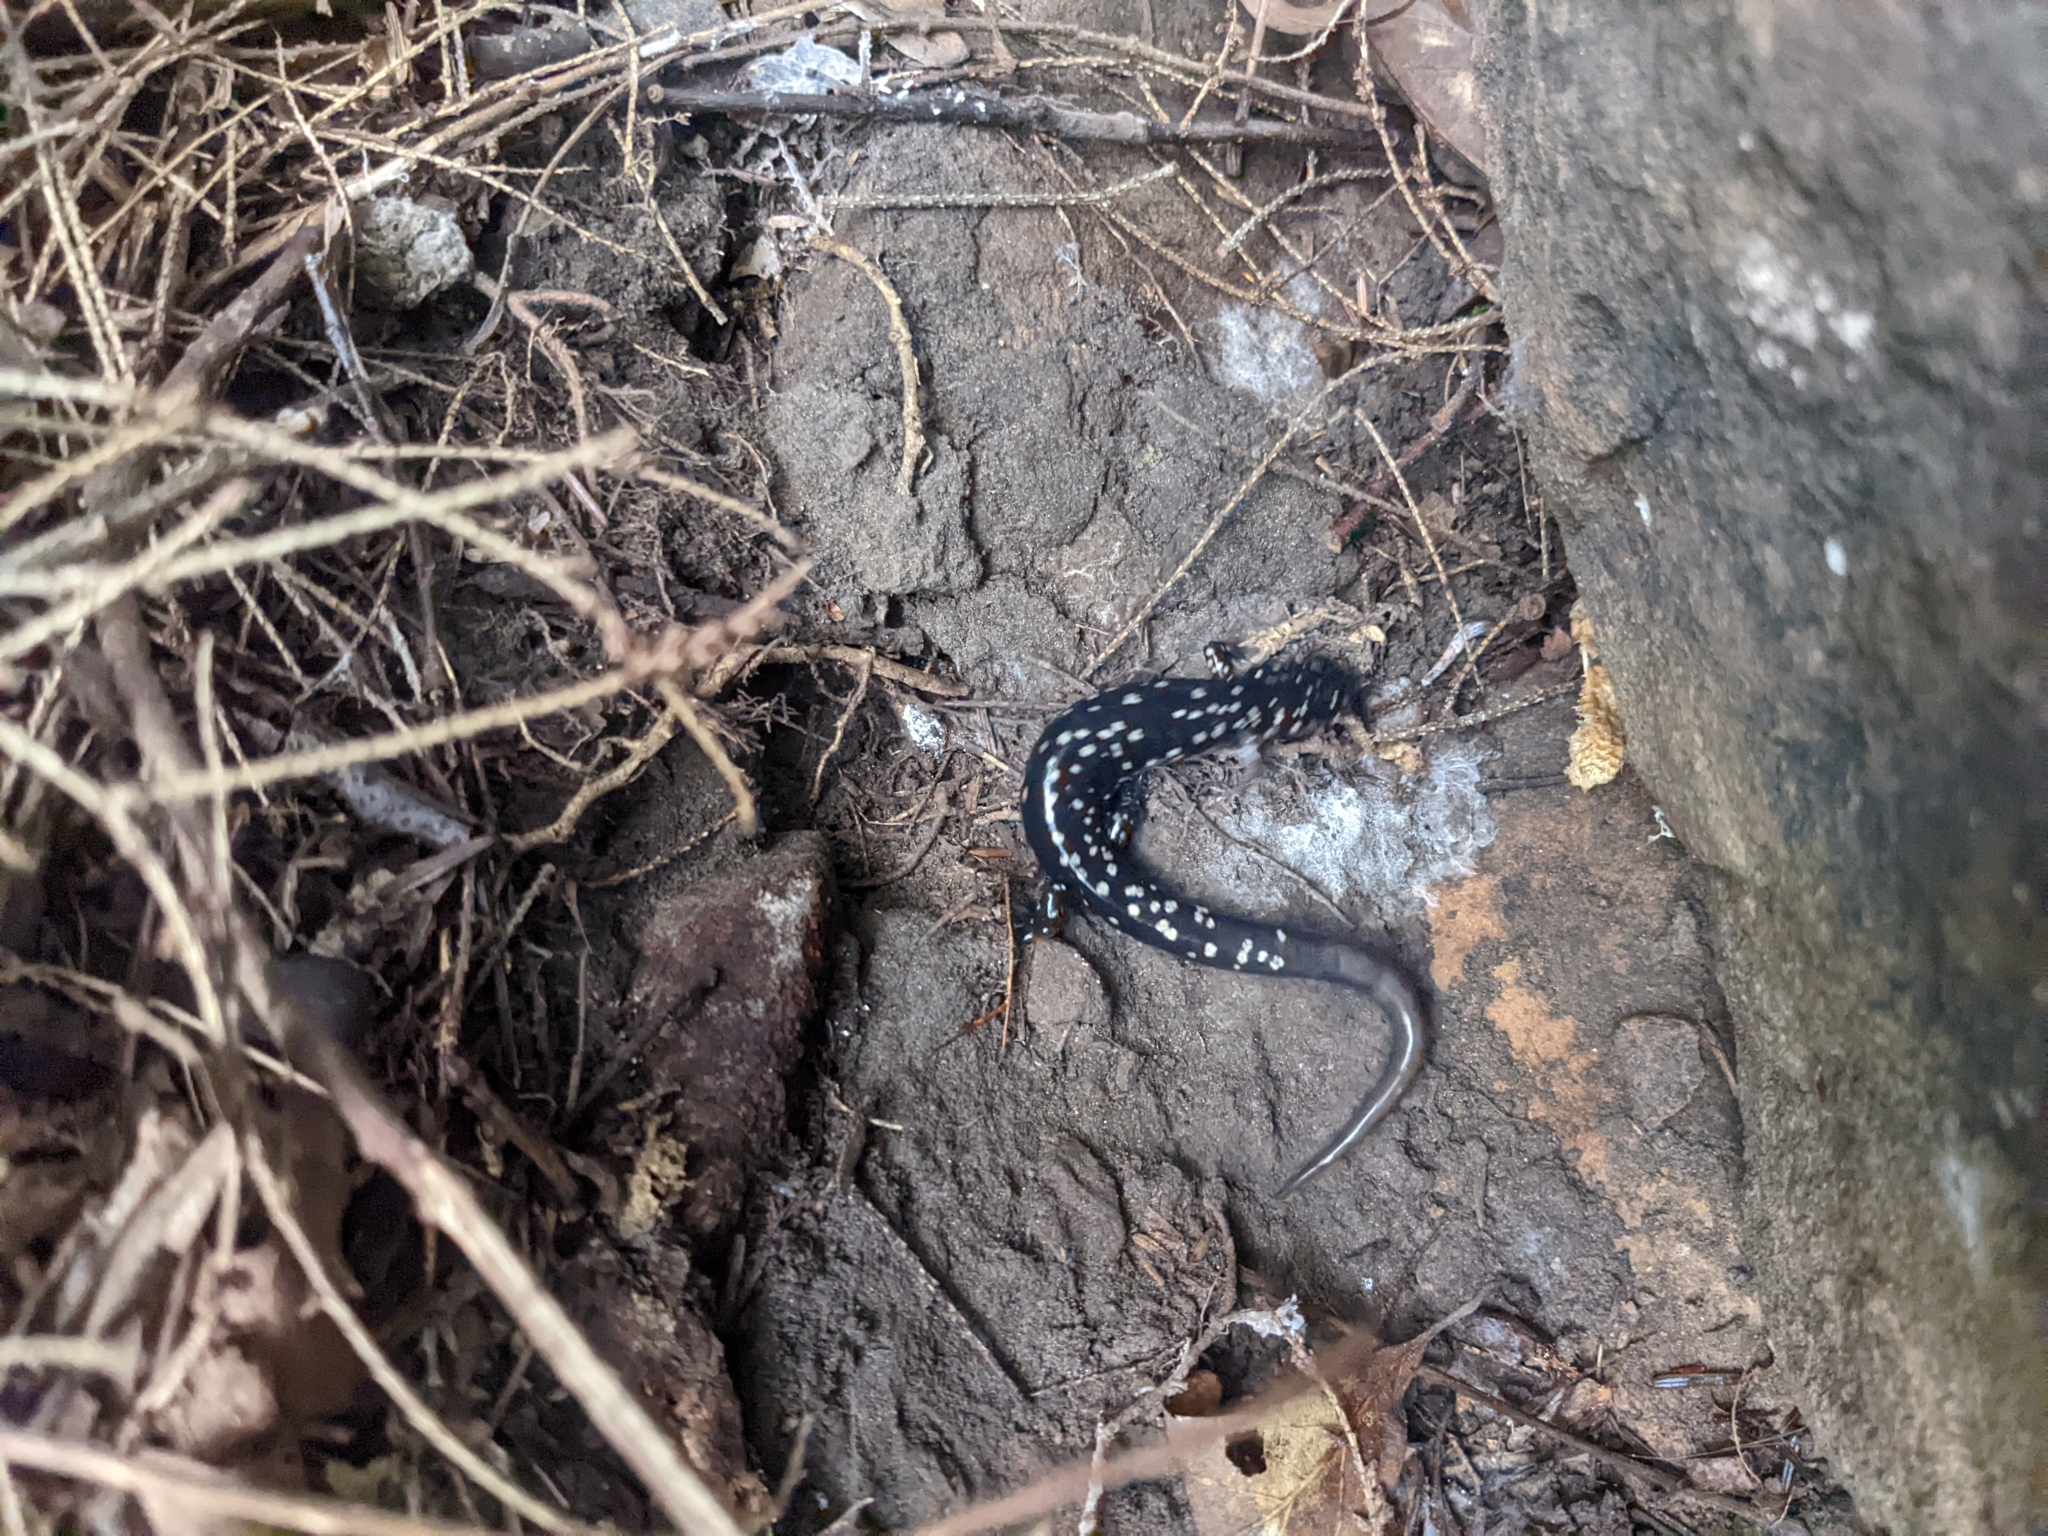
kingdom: Animalia
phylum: Chordata
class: Amphibia
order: Caudata
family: Plethodontidae
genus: Plethodon
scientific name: Plethodon glutinosus
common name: Northern slimy salamander
